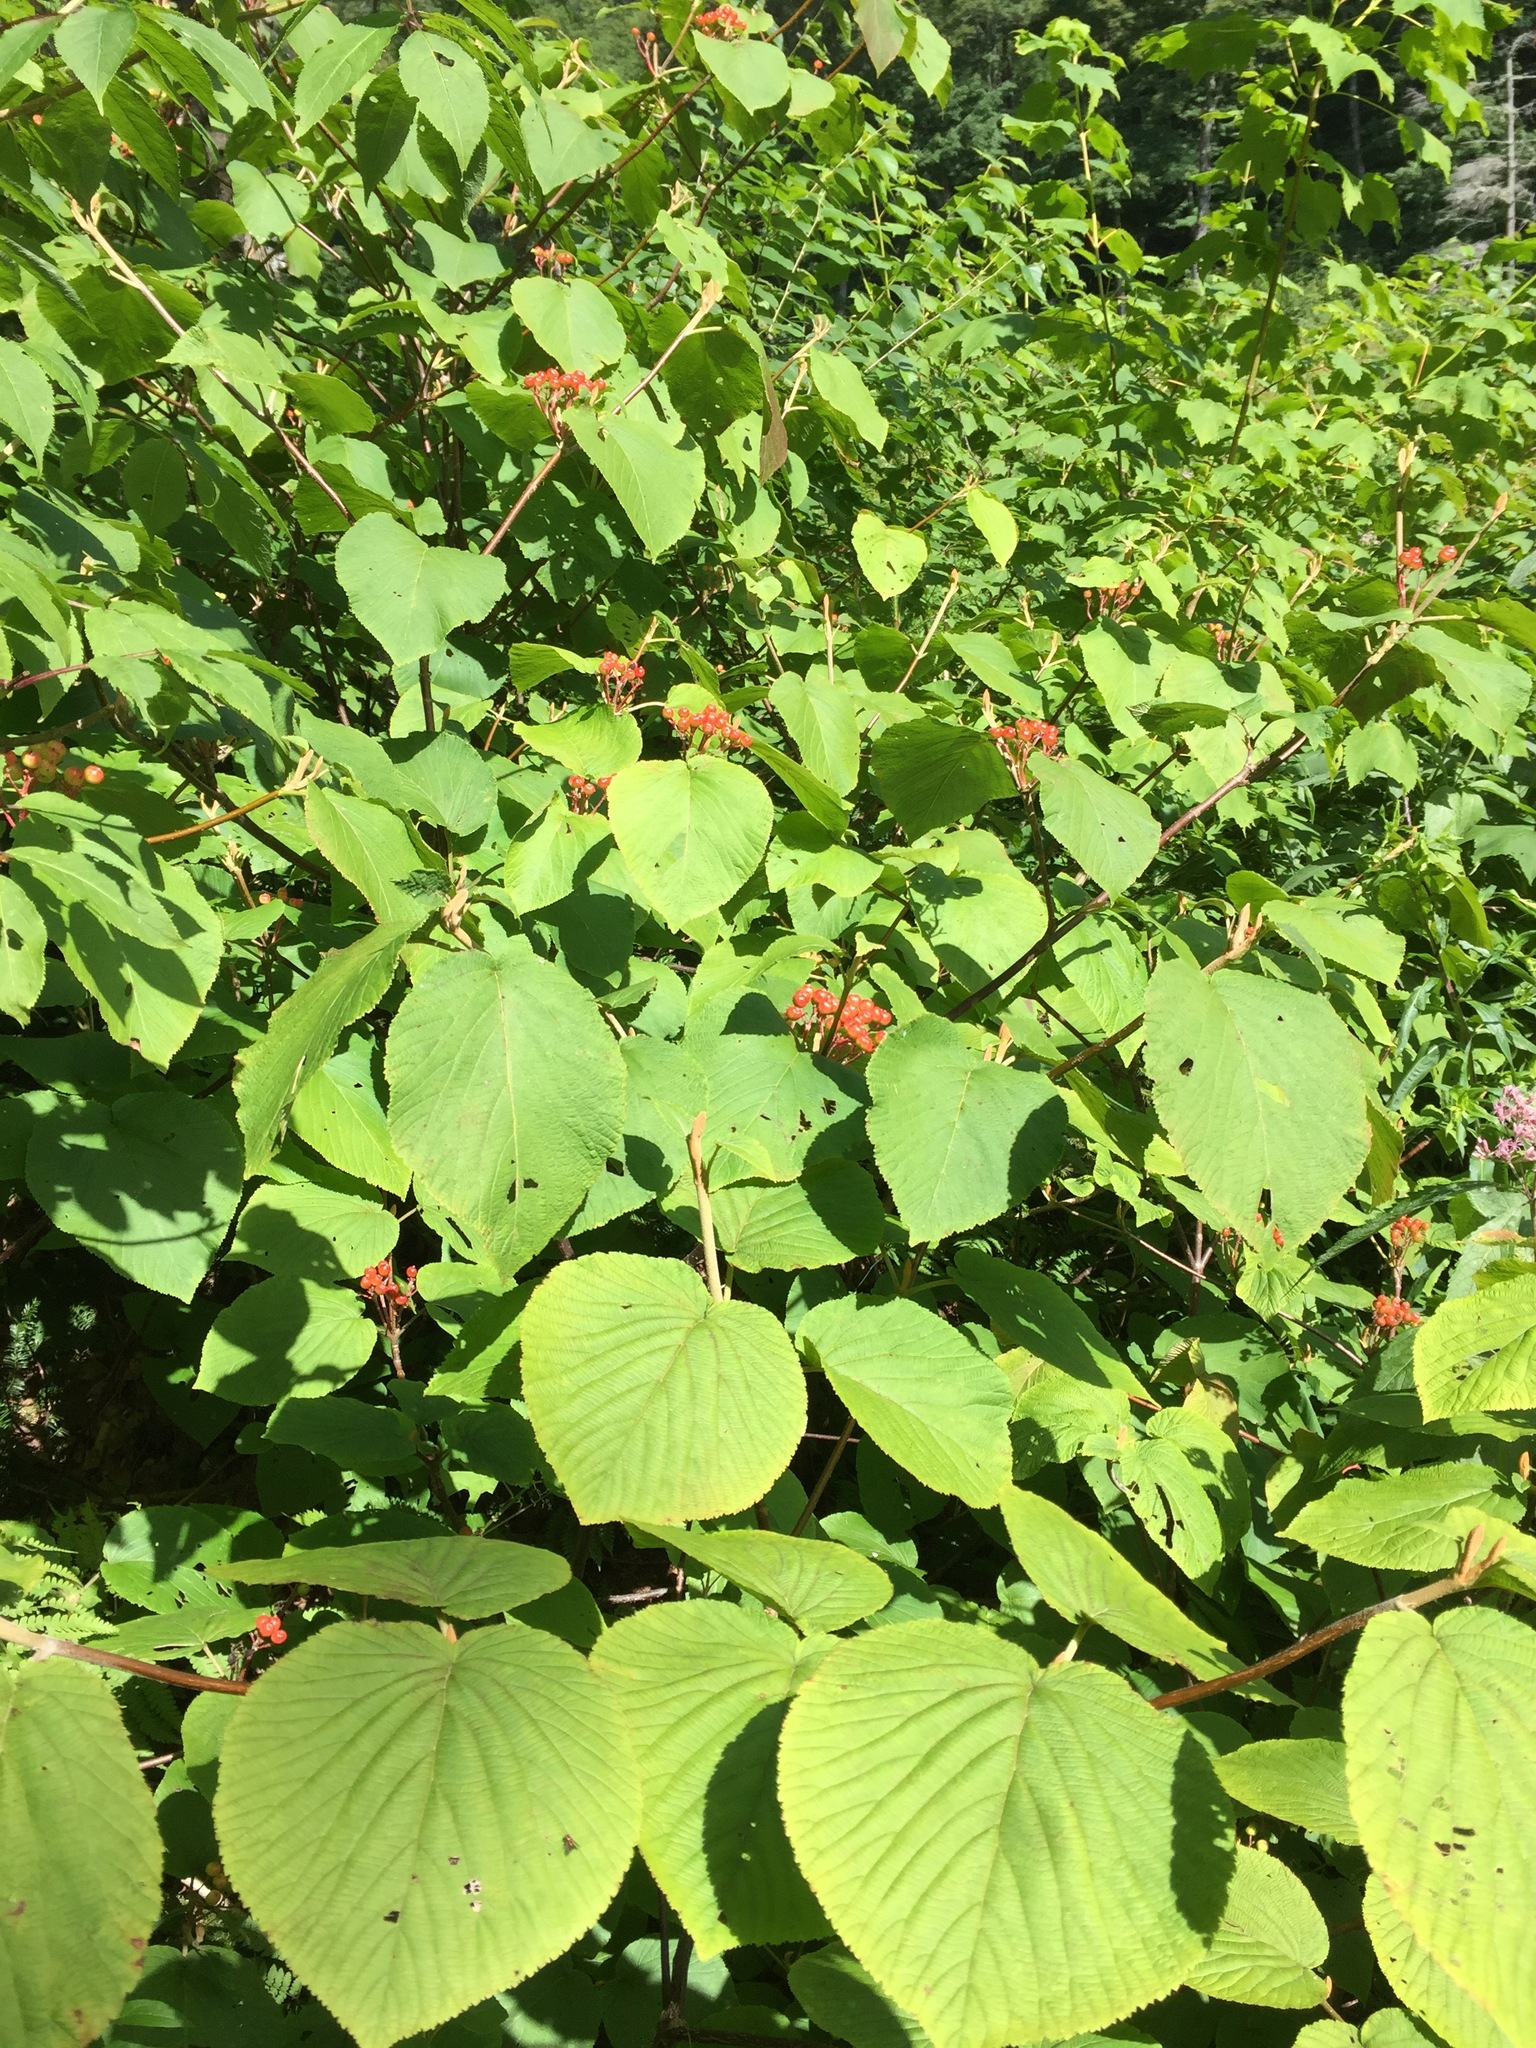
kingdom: Plantae
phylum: Tracheophyta
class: Magnoliopsida
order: Dipsacales
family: Viburnaceae
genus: Viburnum
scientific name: Viburnum lantanoides
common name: Hobblebush
